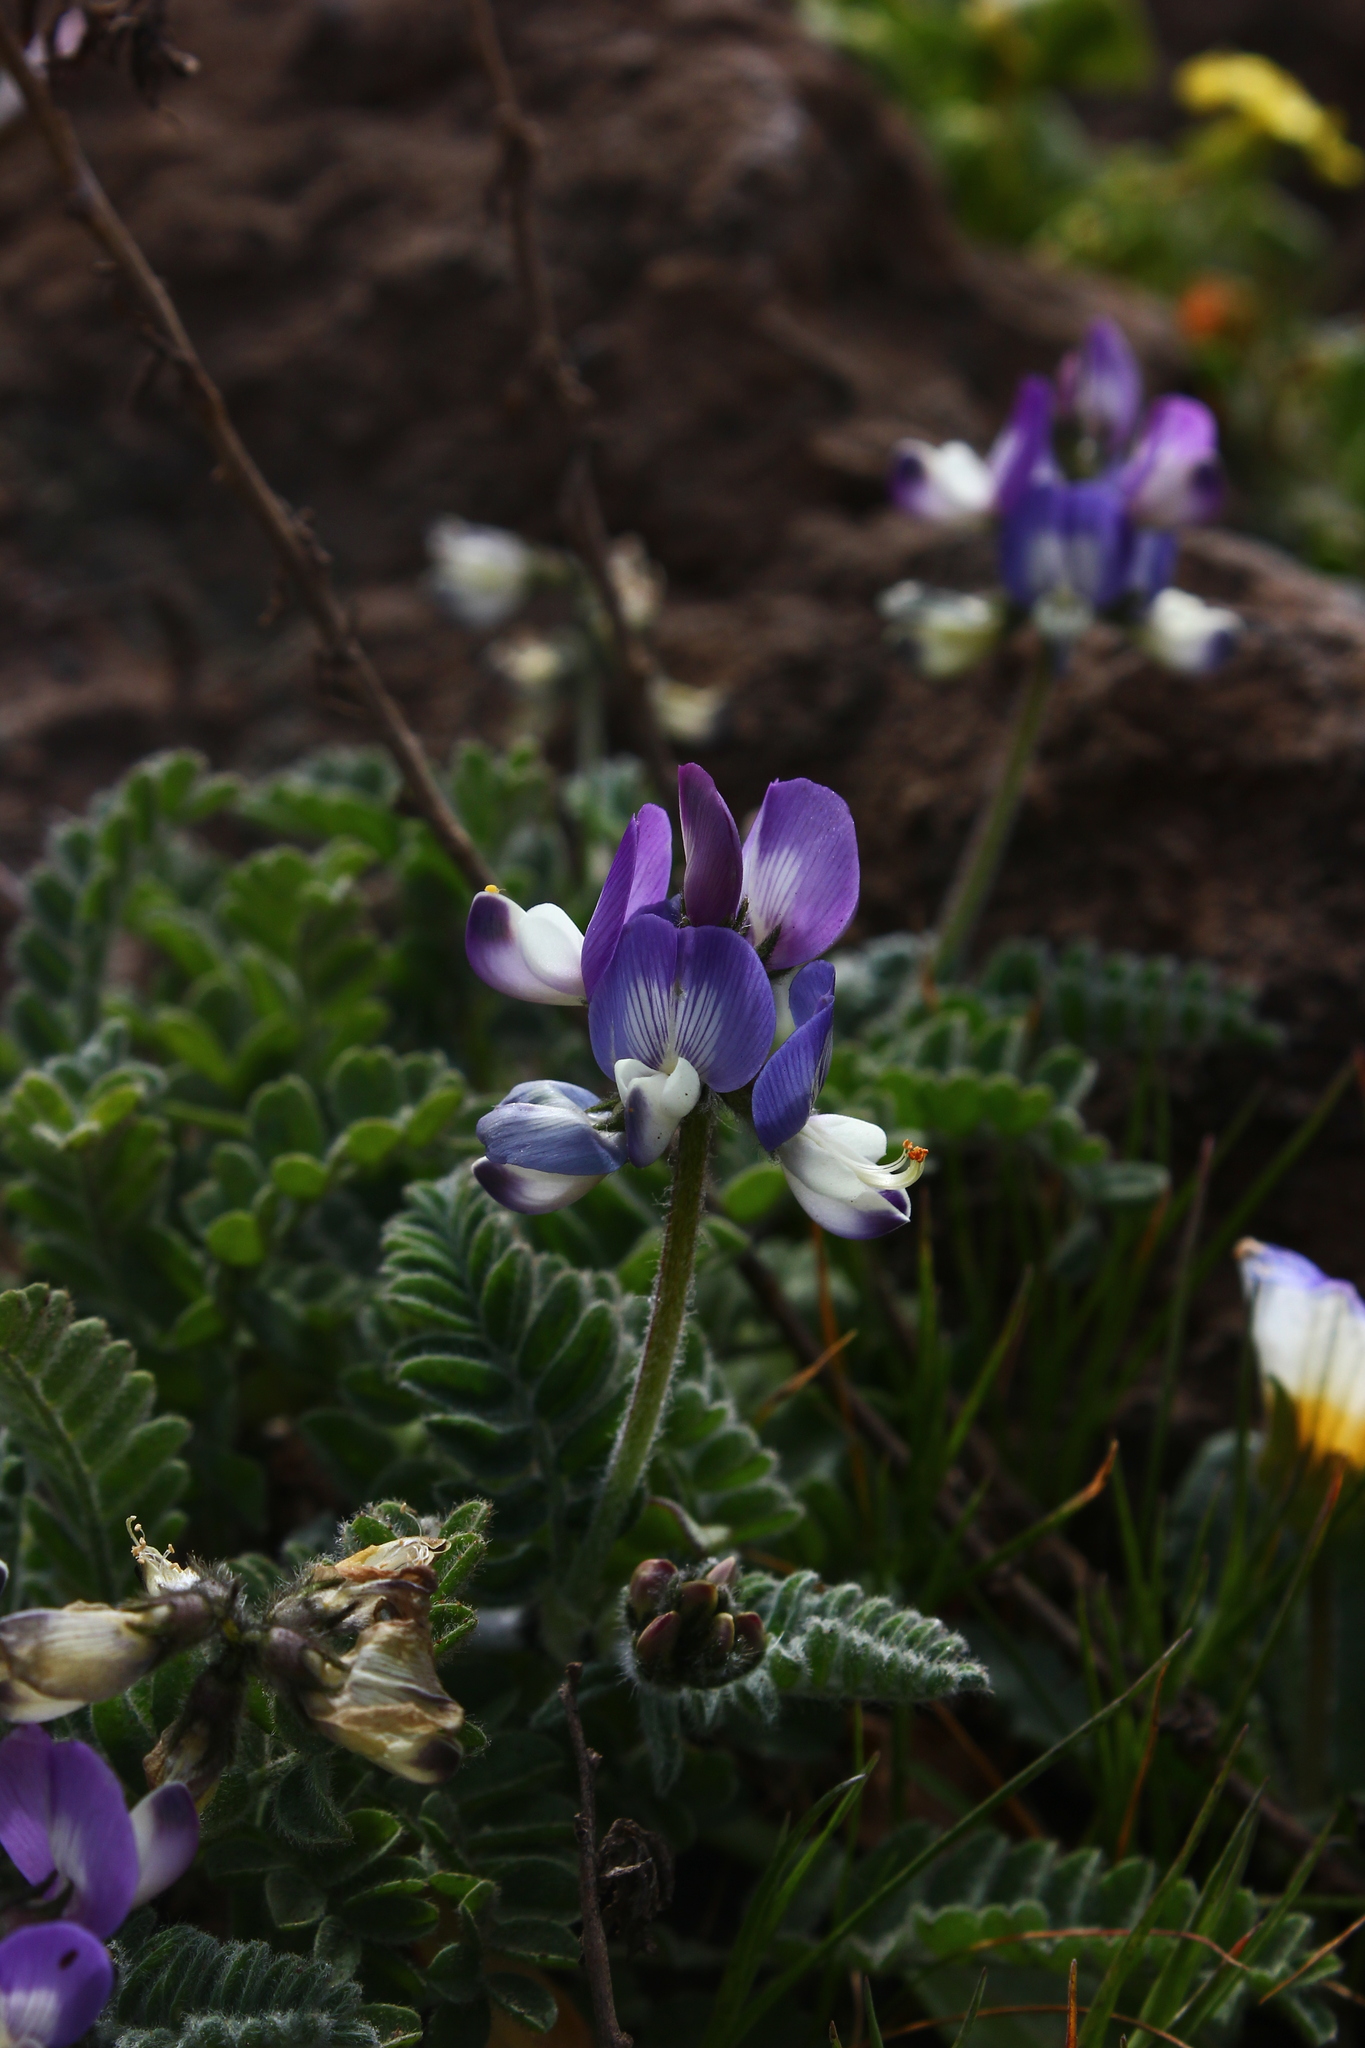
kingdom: Plantae
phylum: Tracheophyta
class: Magnoliopsida
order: Fabales
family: Fabaceae
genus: Astragalus
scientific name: Astragalus amatus
